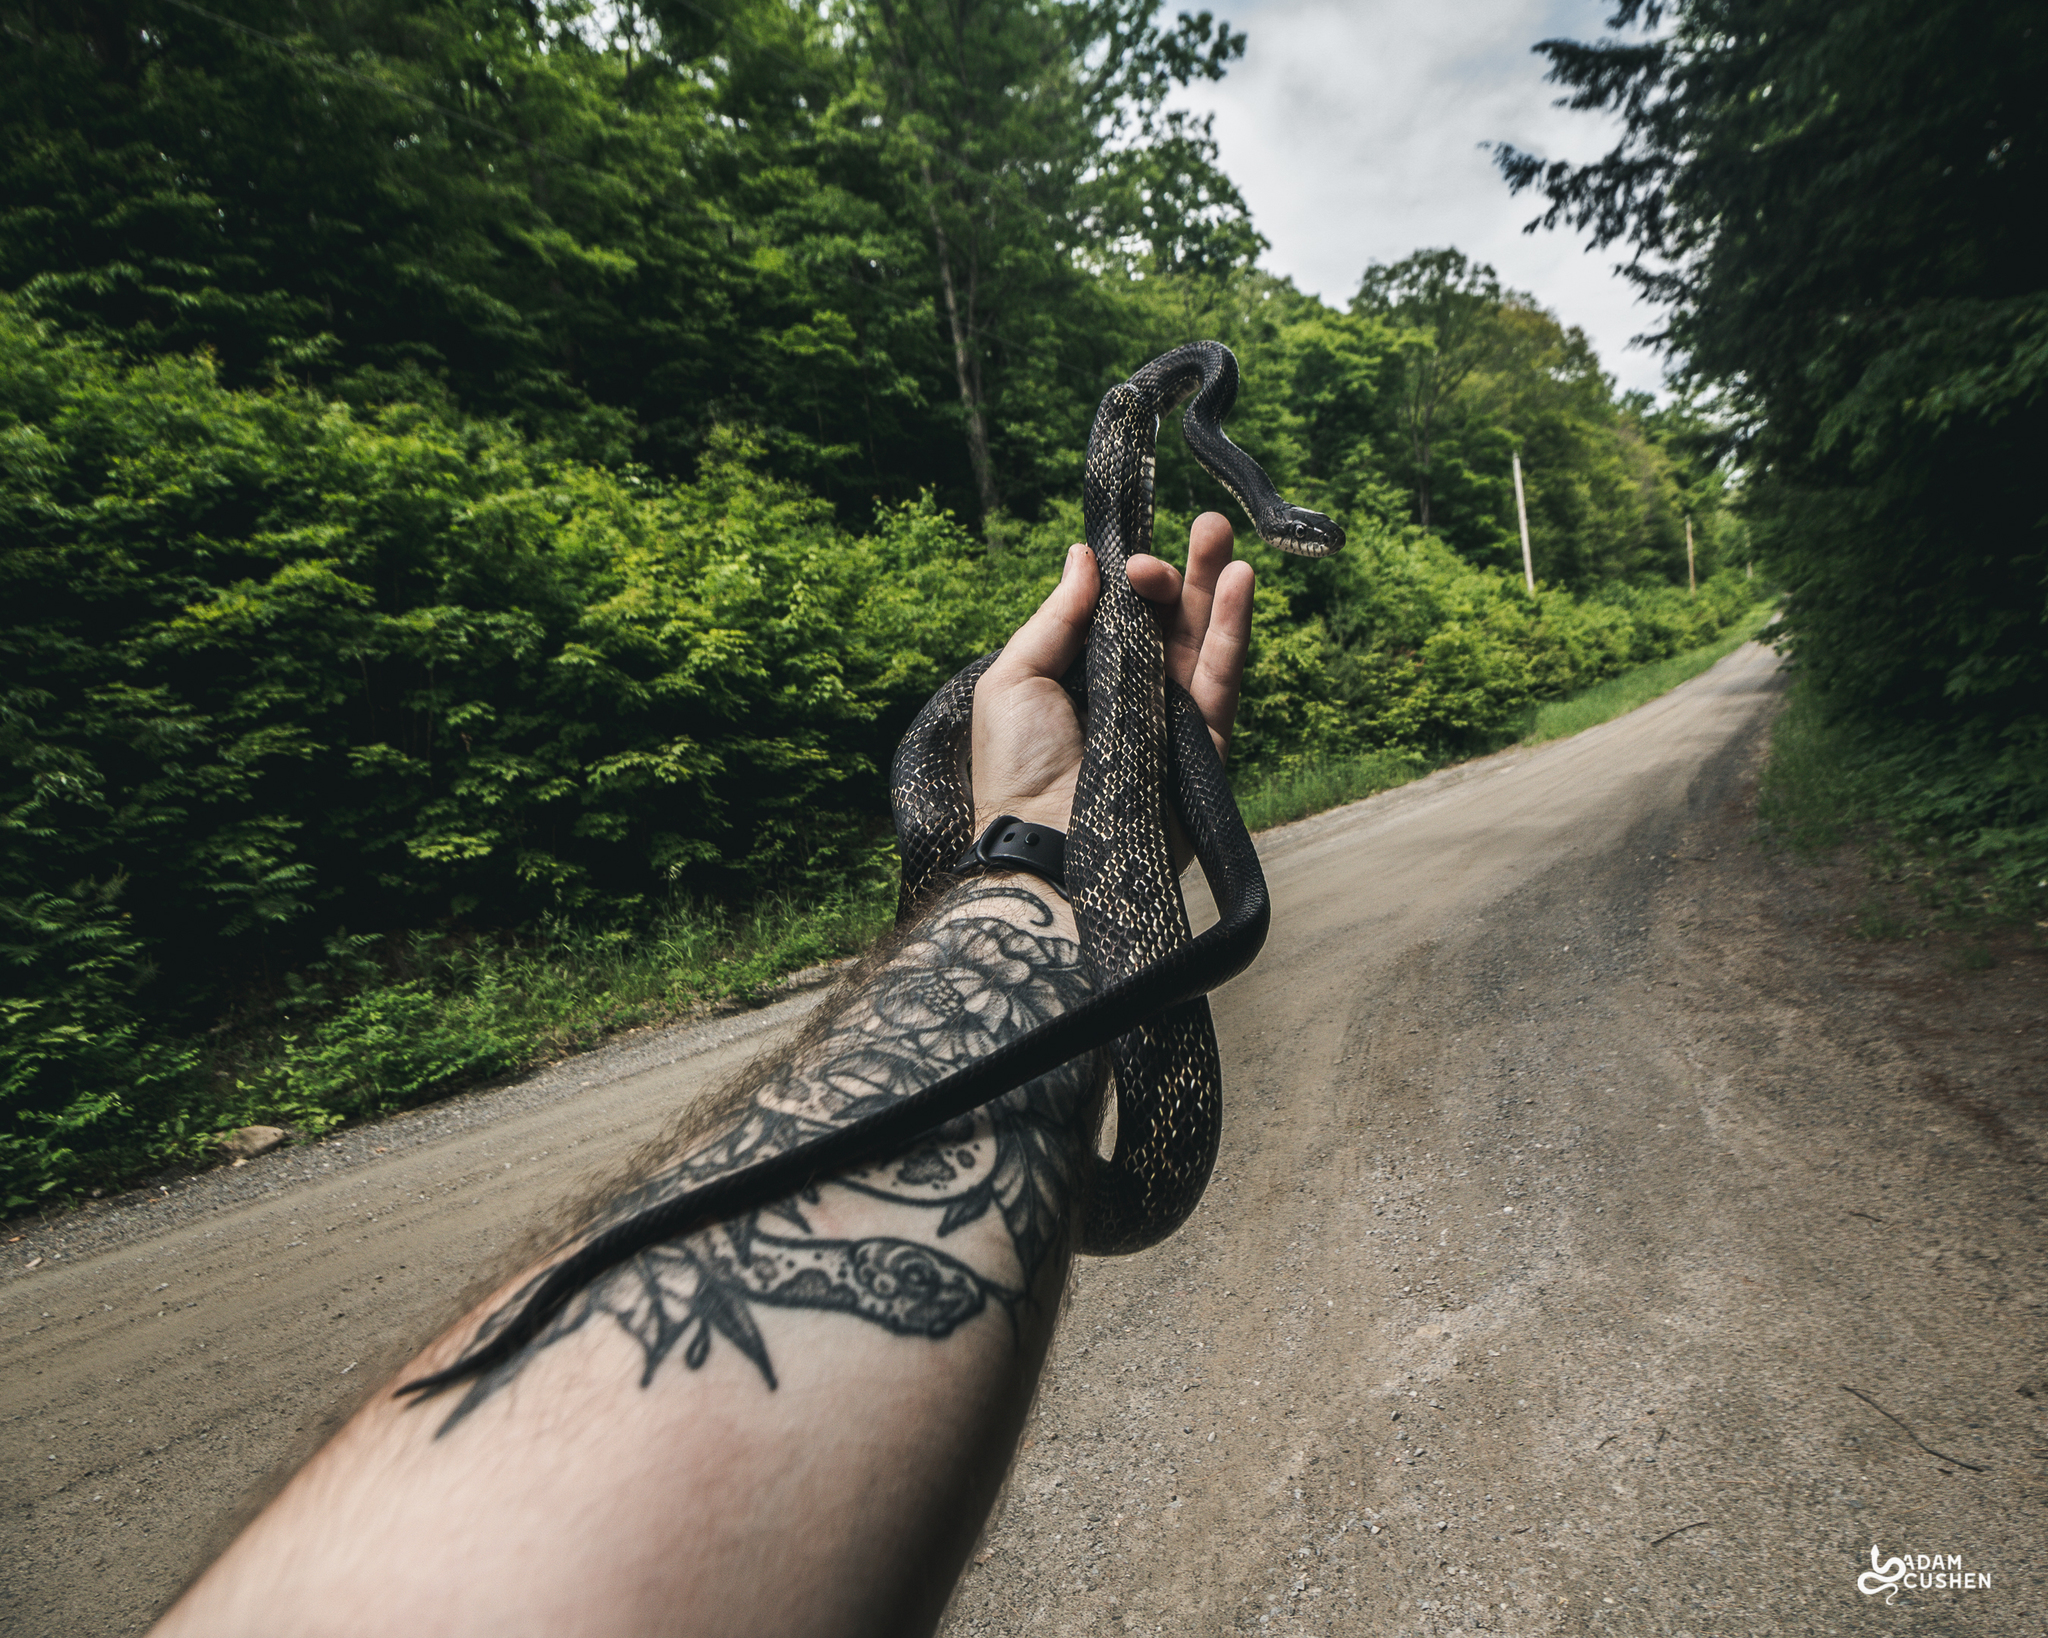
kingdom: Animalia
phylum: Chordata
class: Squamata
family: Colubridae
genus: Pantherophis
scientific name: Pantherophis spiloides
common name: Gray rat snake
